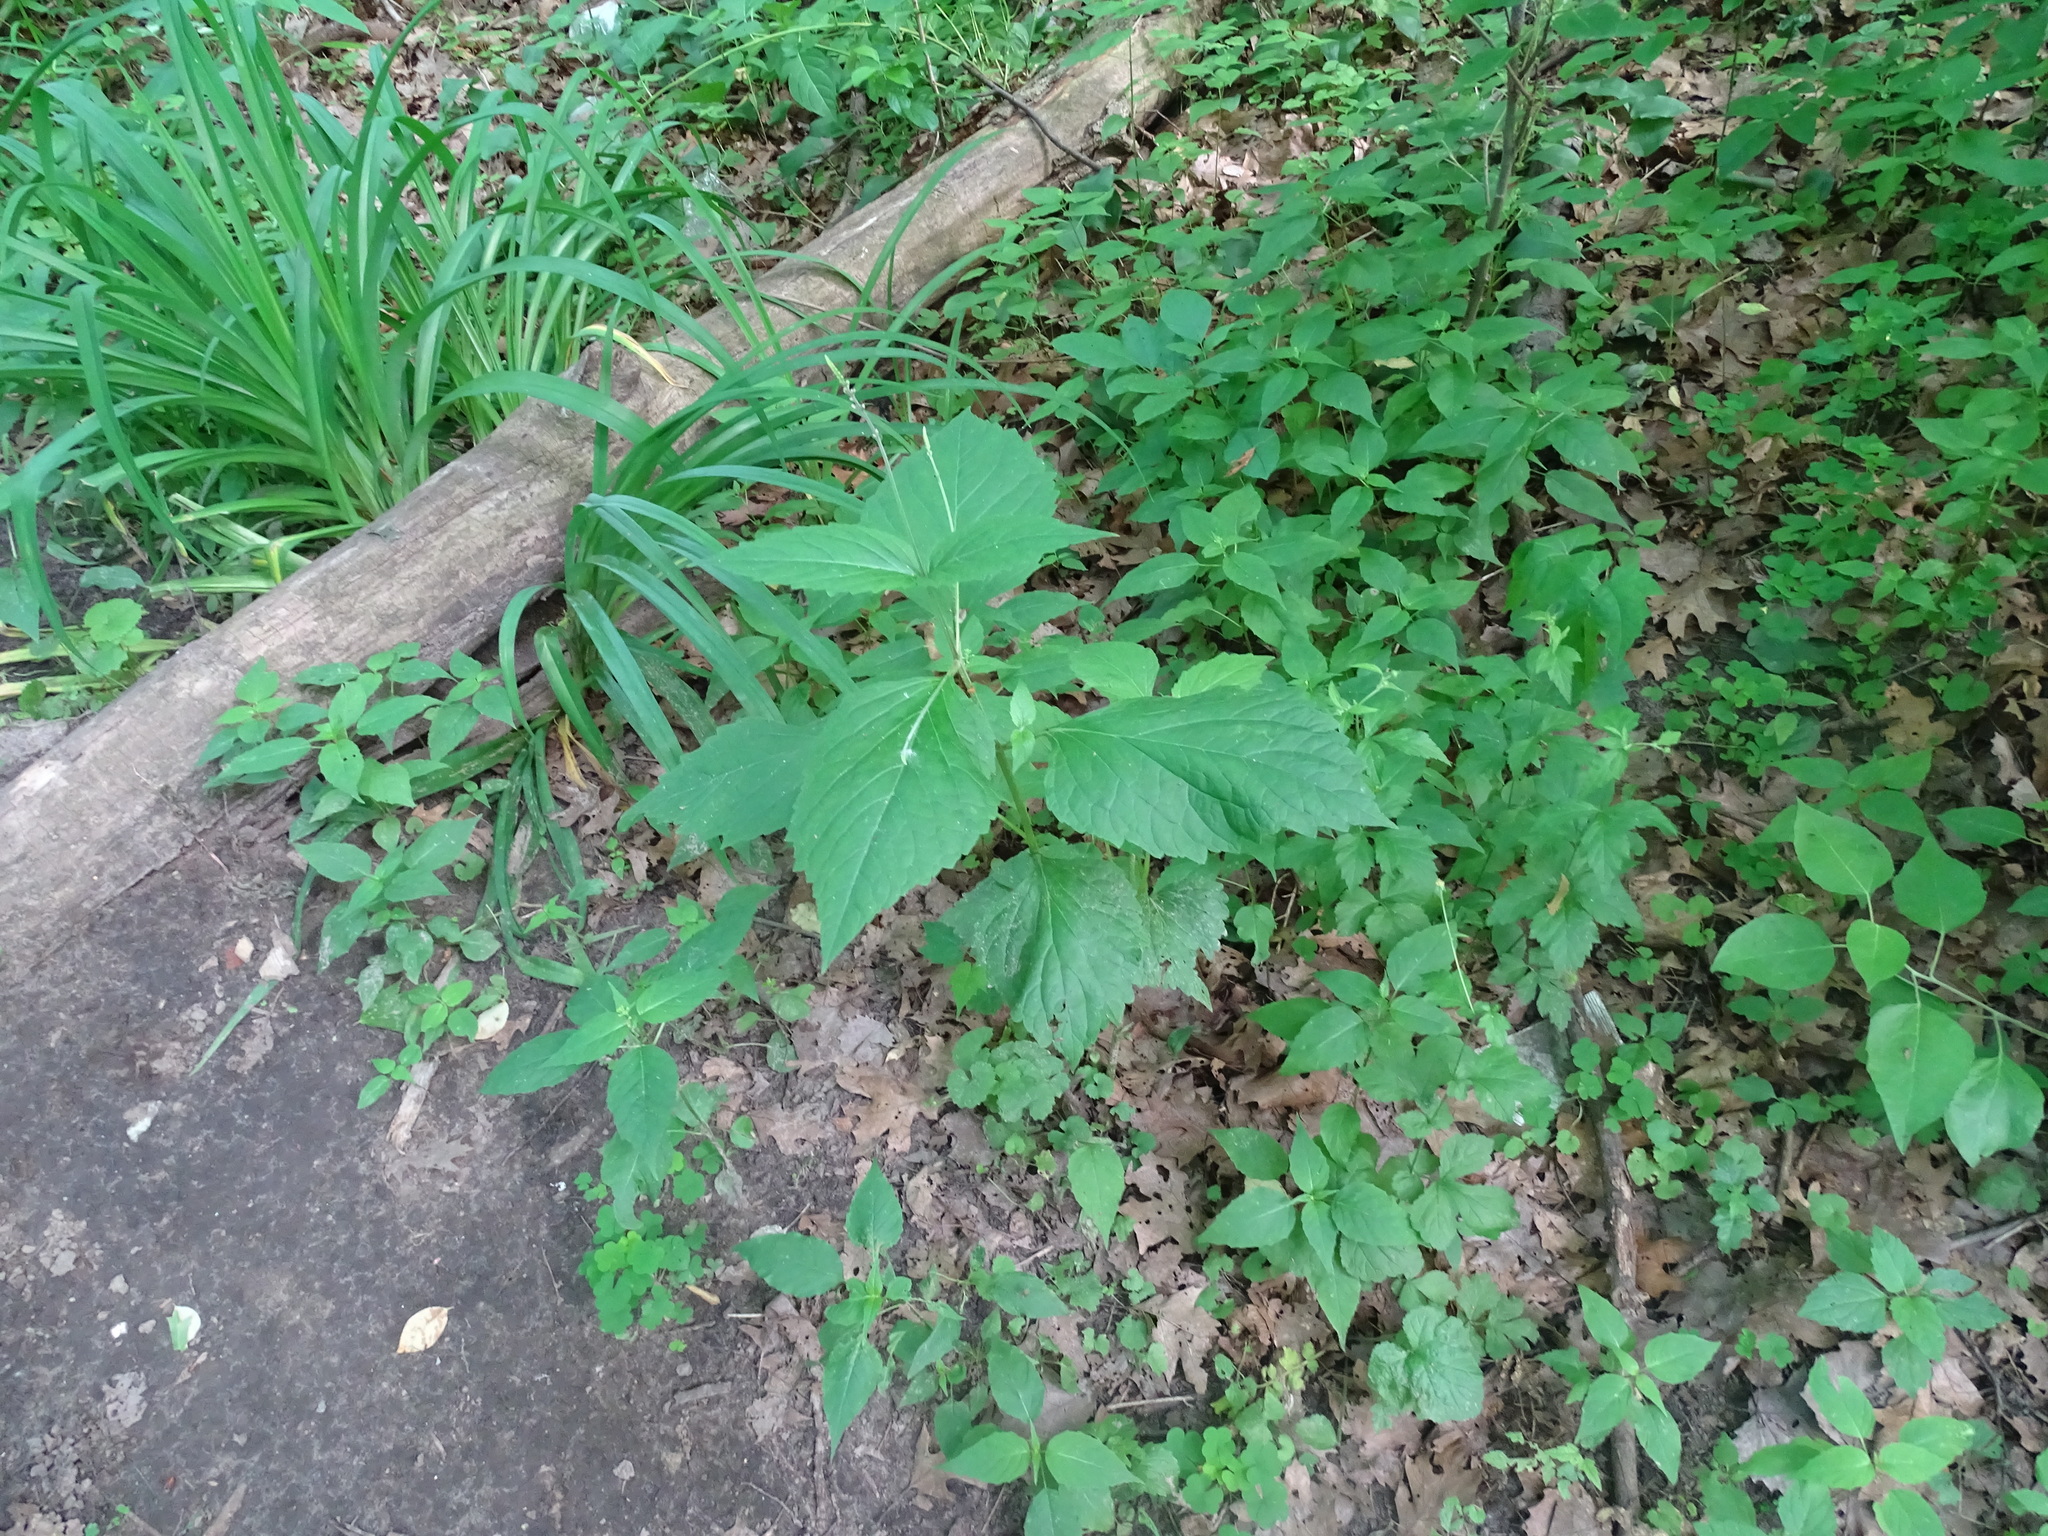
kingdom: Plantae
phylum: Tracheophyta
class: Magnoliopsida
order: Lamiales
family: Phrymaceae
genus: Phryma
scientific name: Phryma leptostachya
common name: American lopseed
